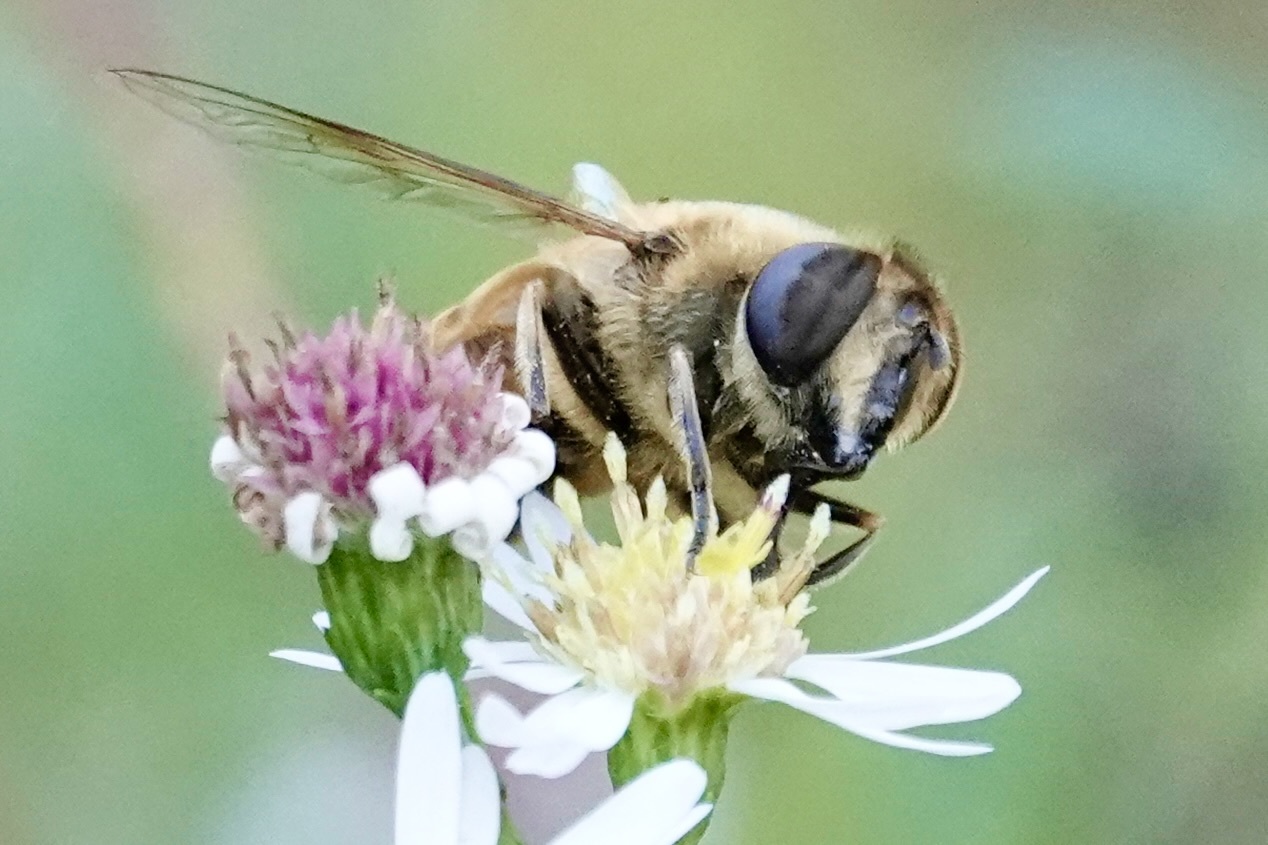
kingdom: Animalia
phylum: Arthropoda
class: Insecta
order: Diptera
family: Syrphidae
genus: Eristalis
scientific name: Eristalis tenax
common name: Drone fly
